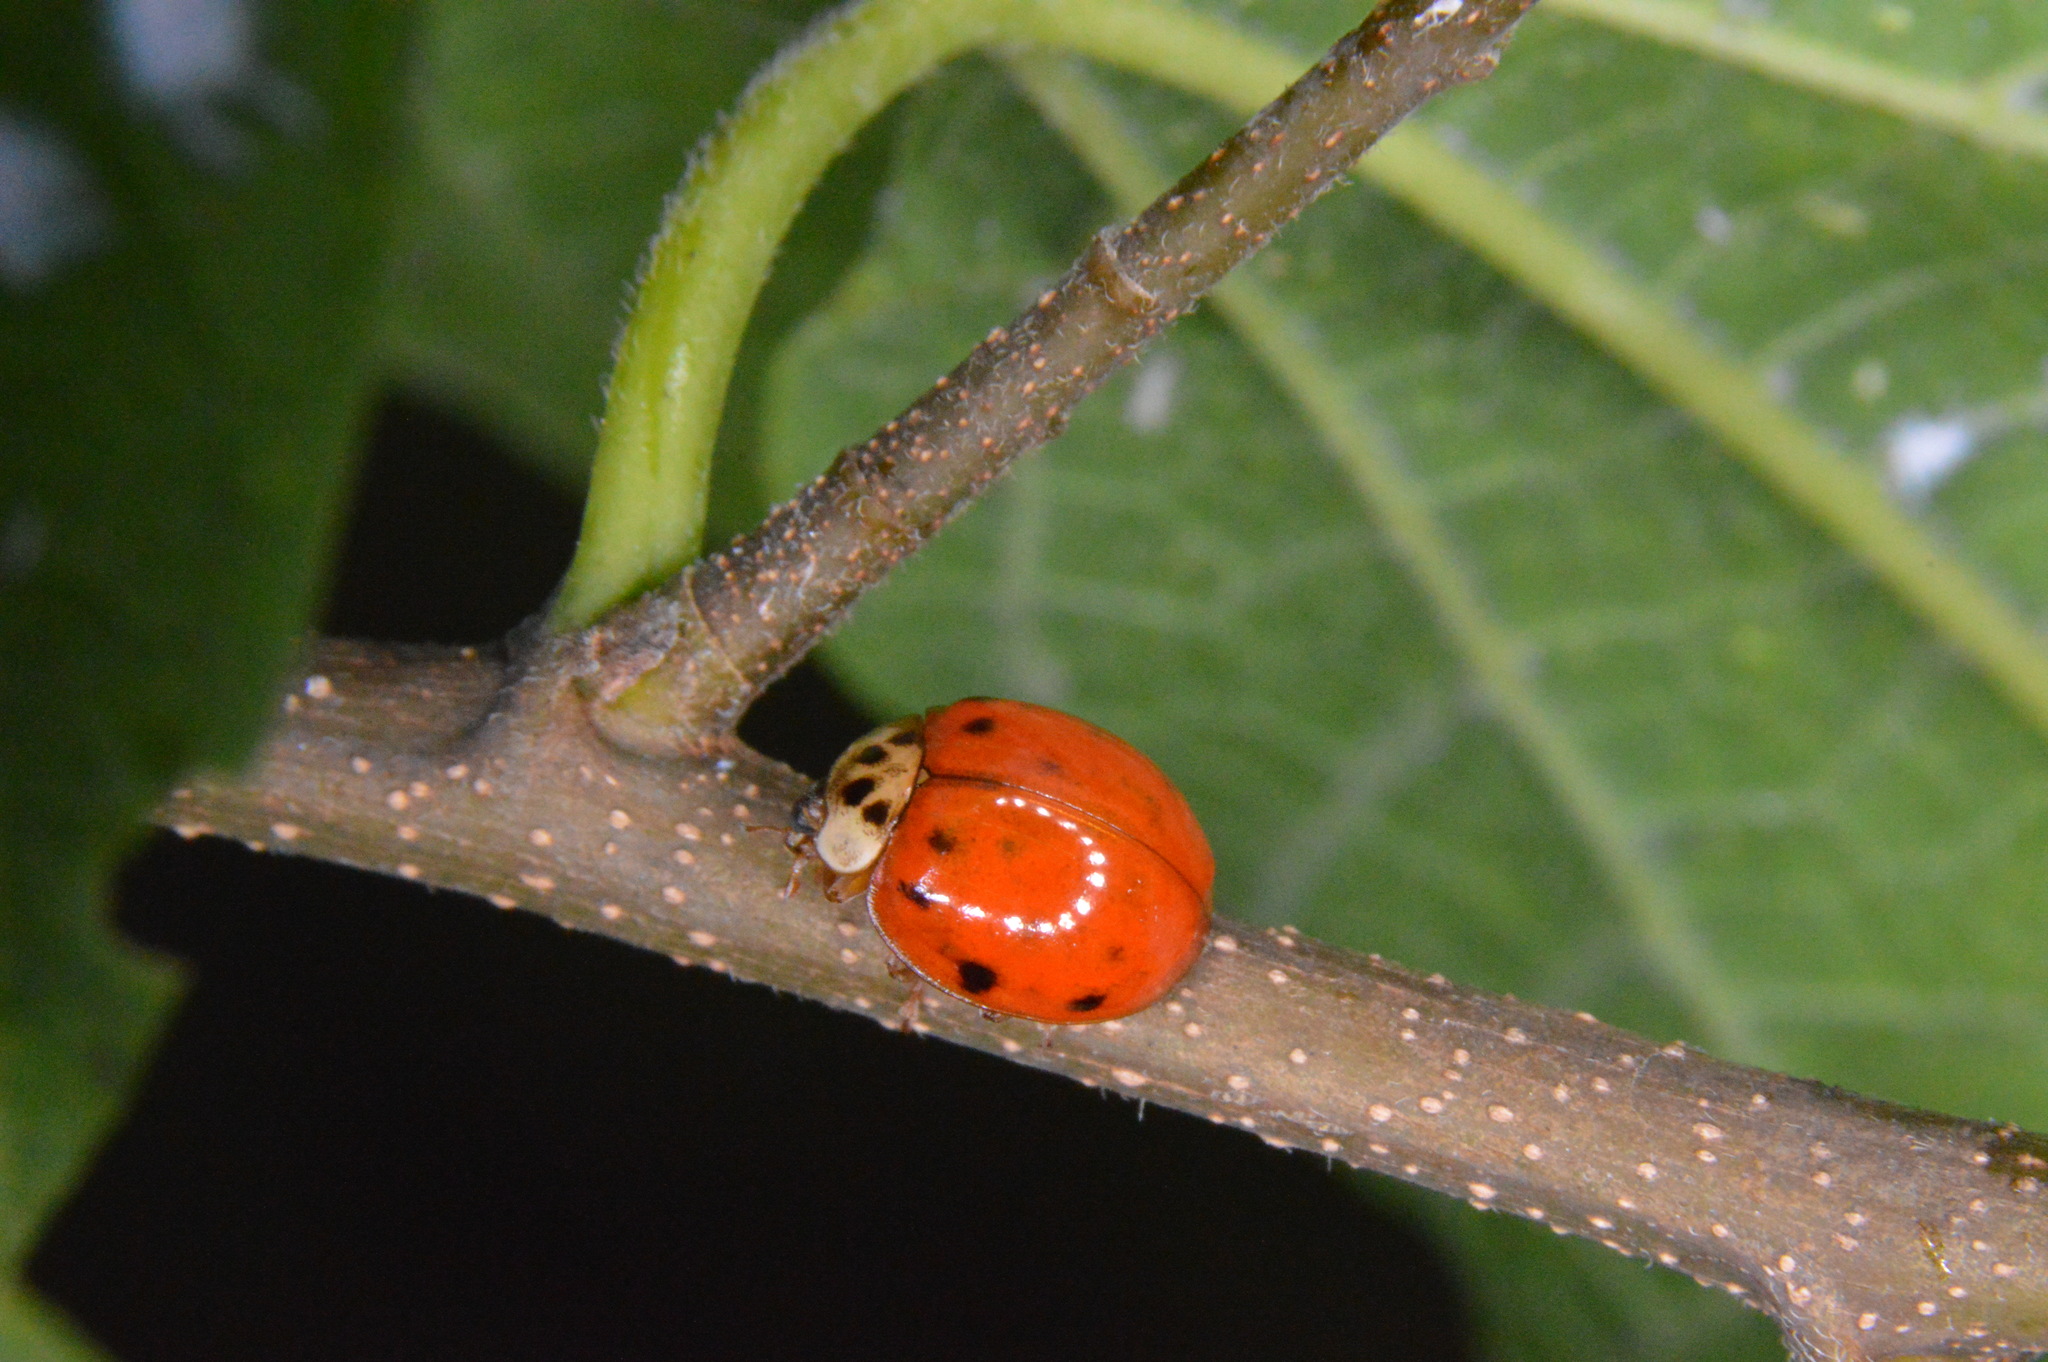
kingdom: Animalia
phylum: Arthropoda
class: Insecta
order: Coleoptera
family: Coccinellidae
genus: Harmonia
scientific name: Harmonia axyridis
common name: Harlequin ladybird
